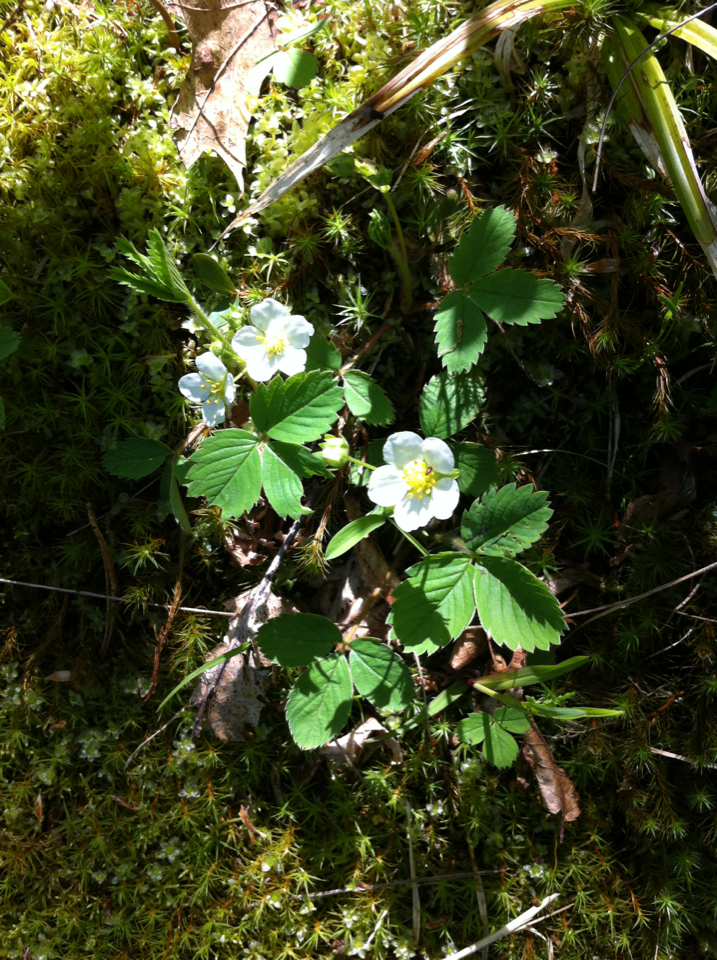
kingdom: Plantae
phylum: Tracheophyta
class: Magnoliopsida
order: Rosales
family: Rosaceae
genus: Fragaria
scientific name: Fragaria virginiana
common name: Thickleaved wild strawberry
